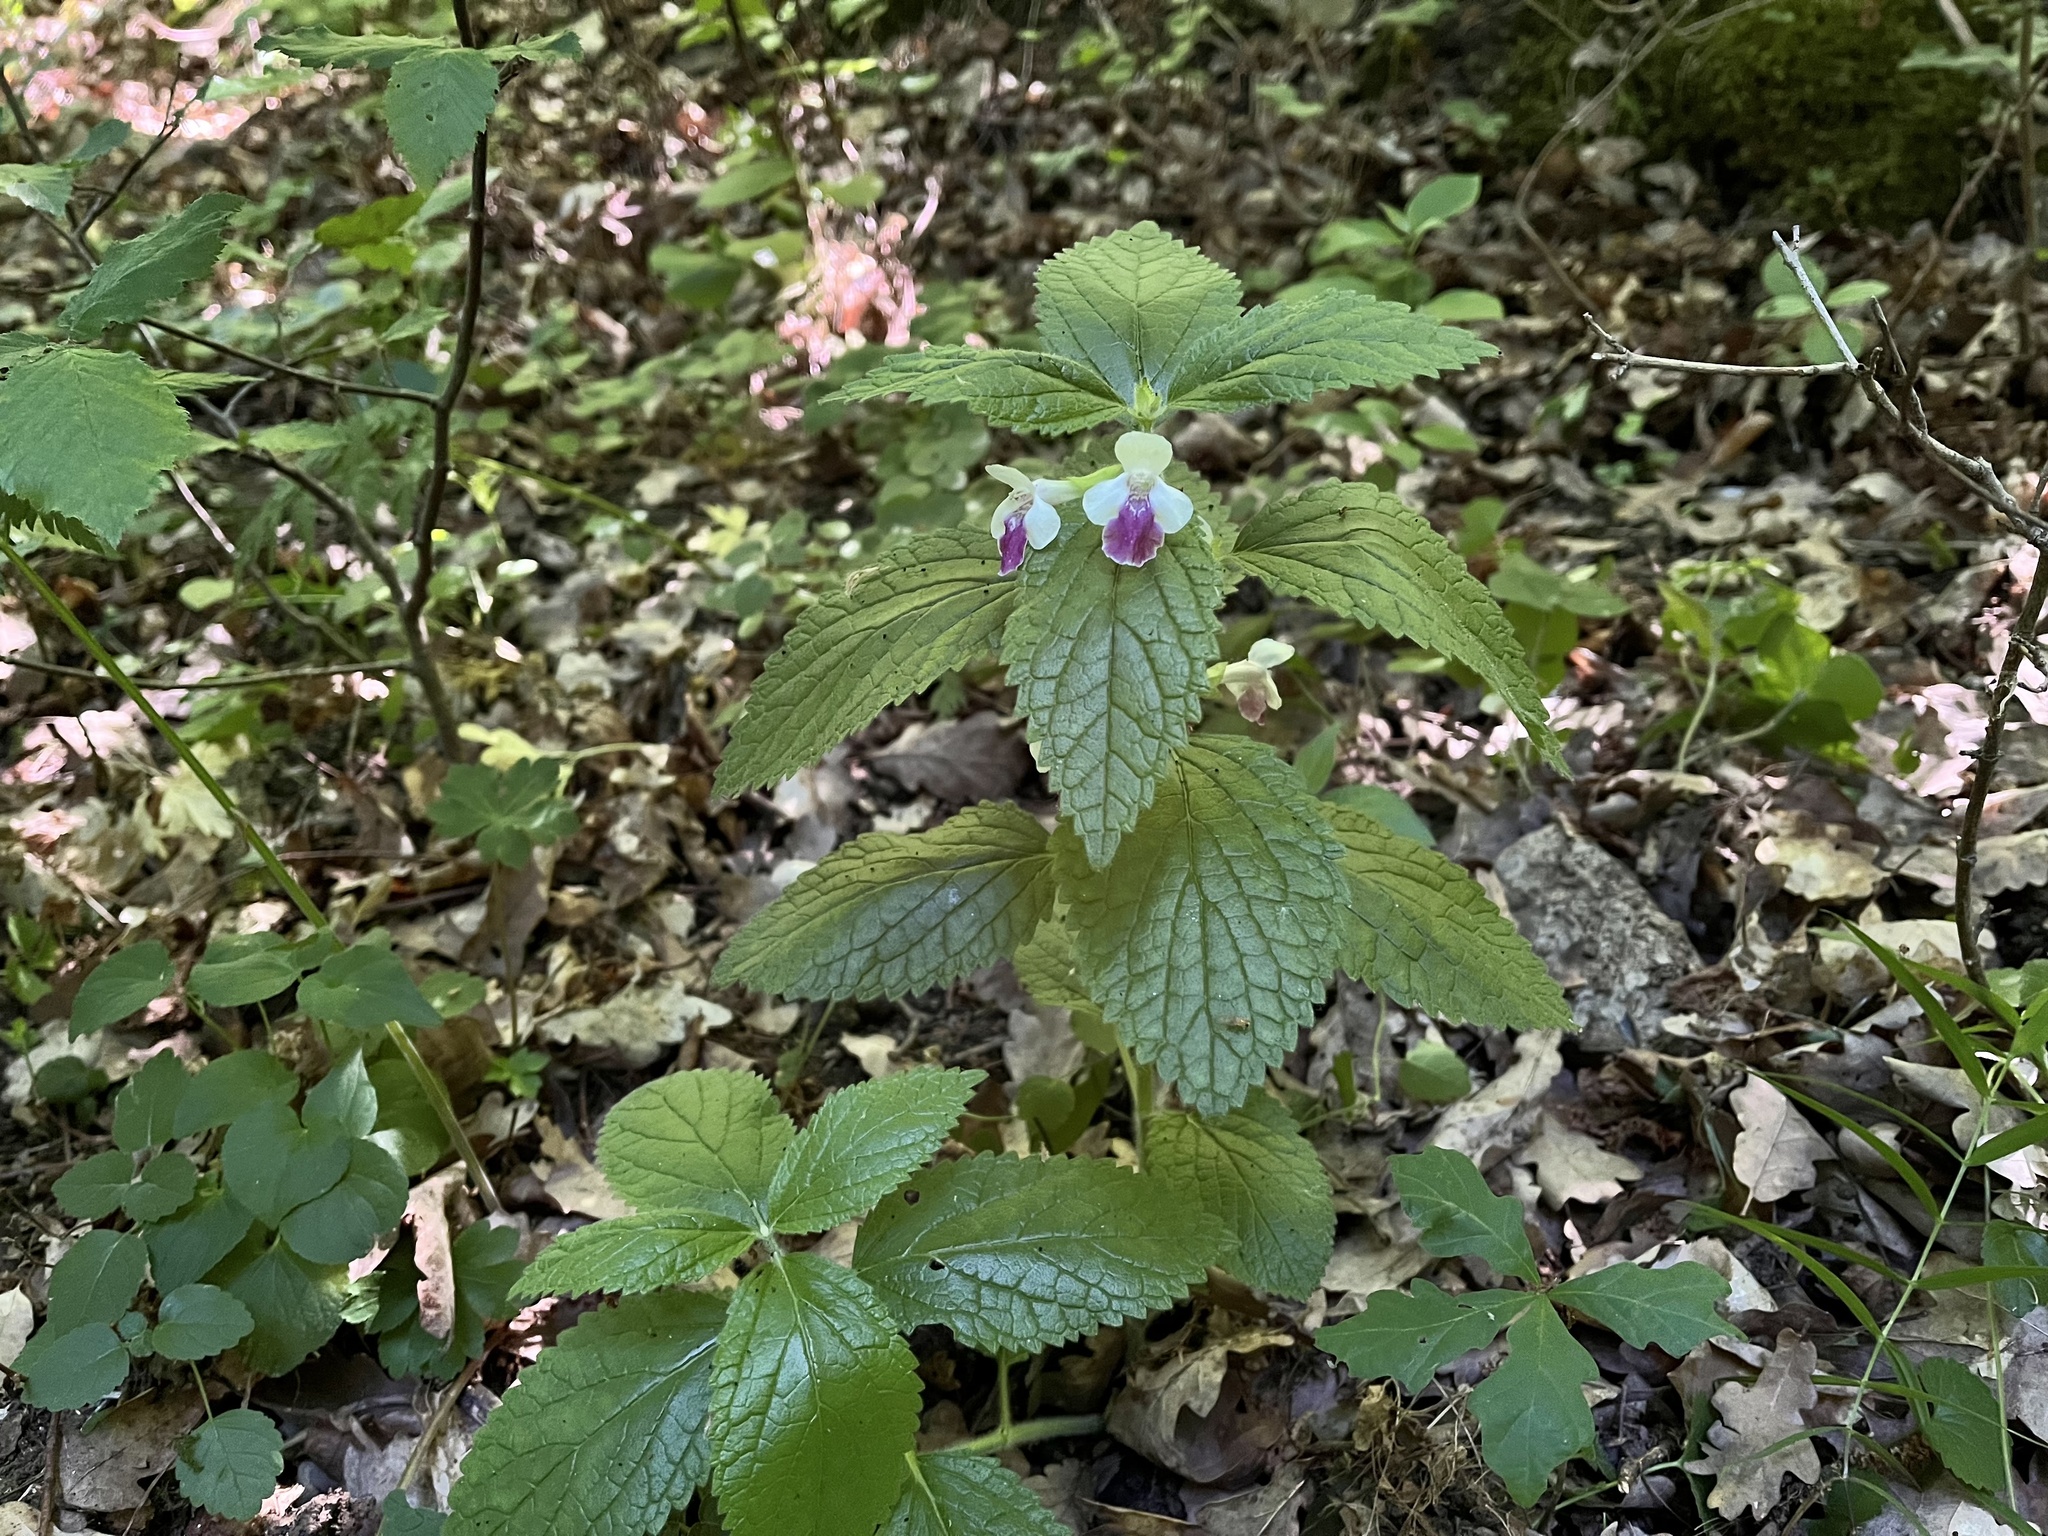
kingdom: Plantae
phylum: Tracheophyta
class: Magnoliopsida
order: Lamiales
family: Lamiaceae
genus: Melittis
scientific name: Melittis melissophyllum
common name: Bastard balm
